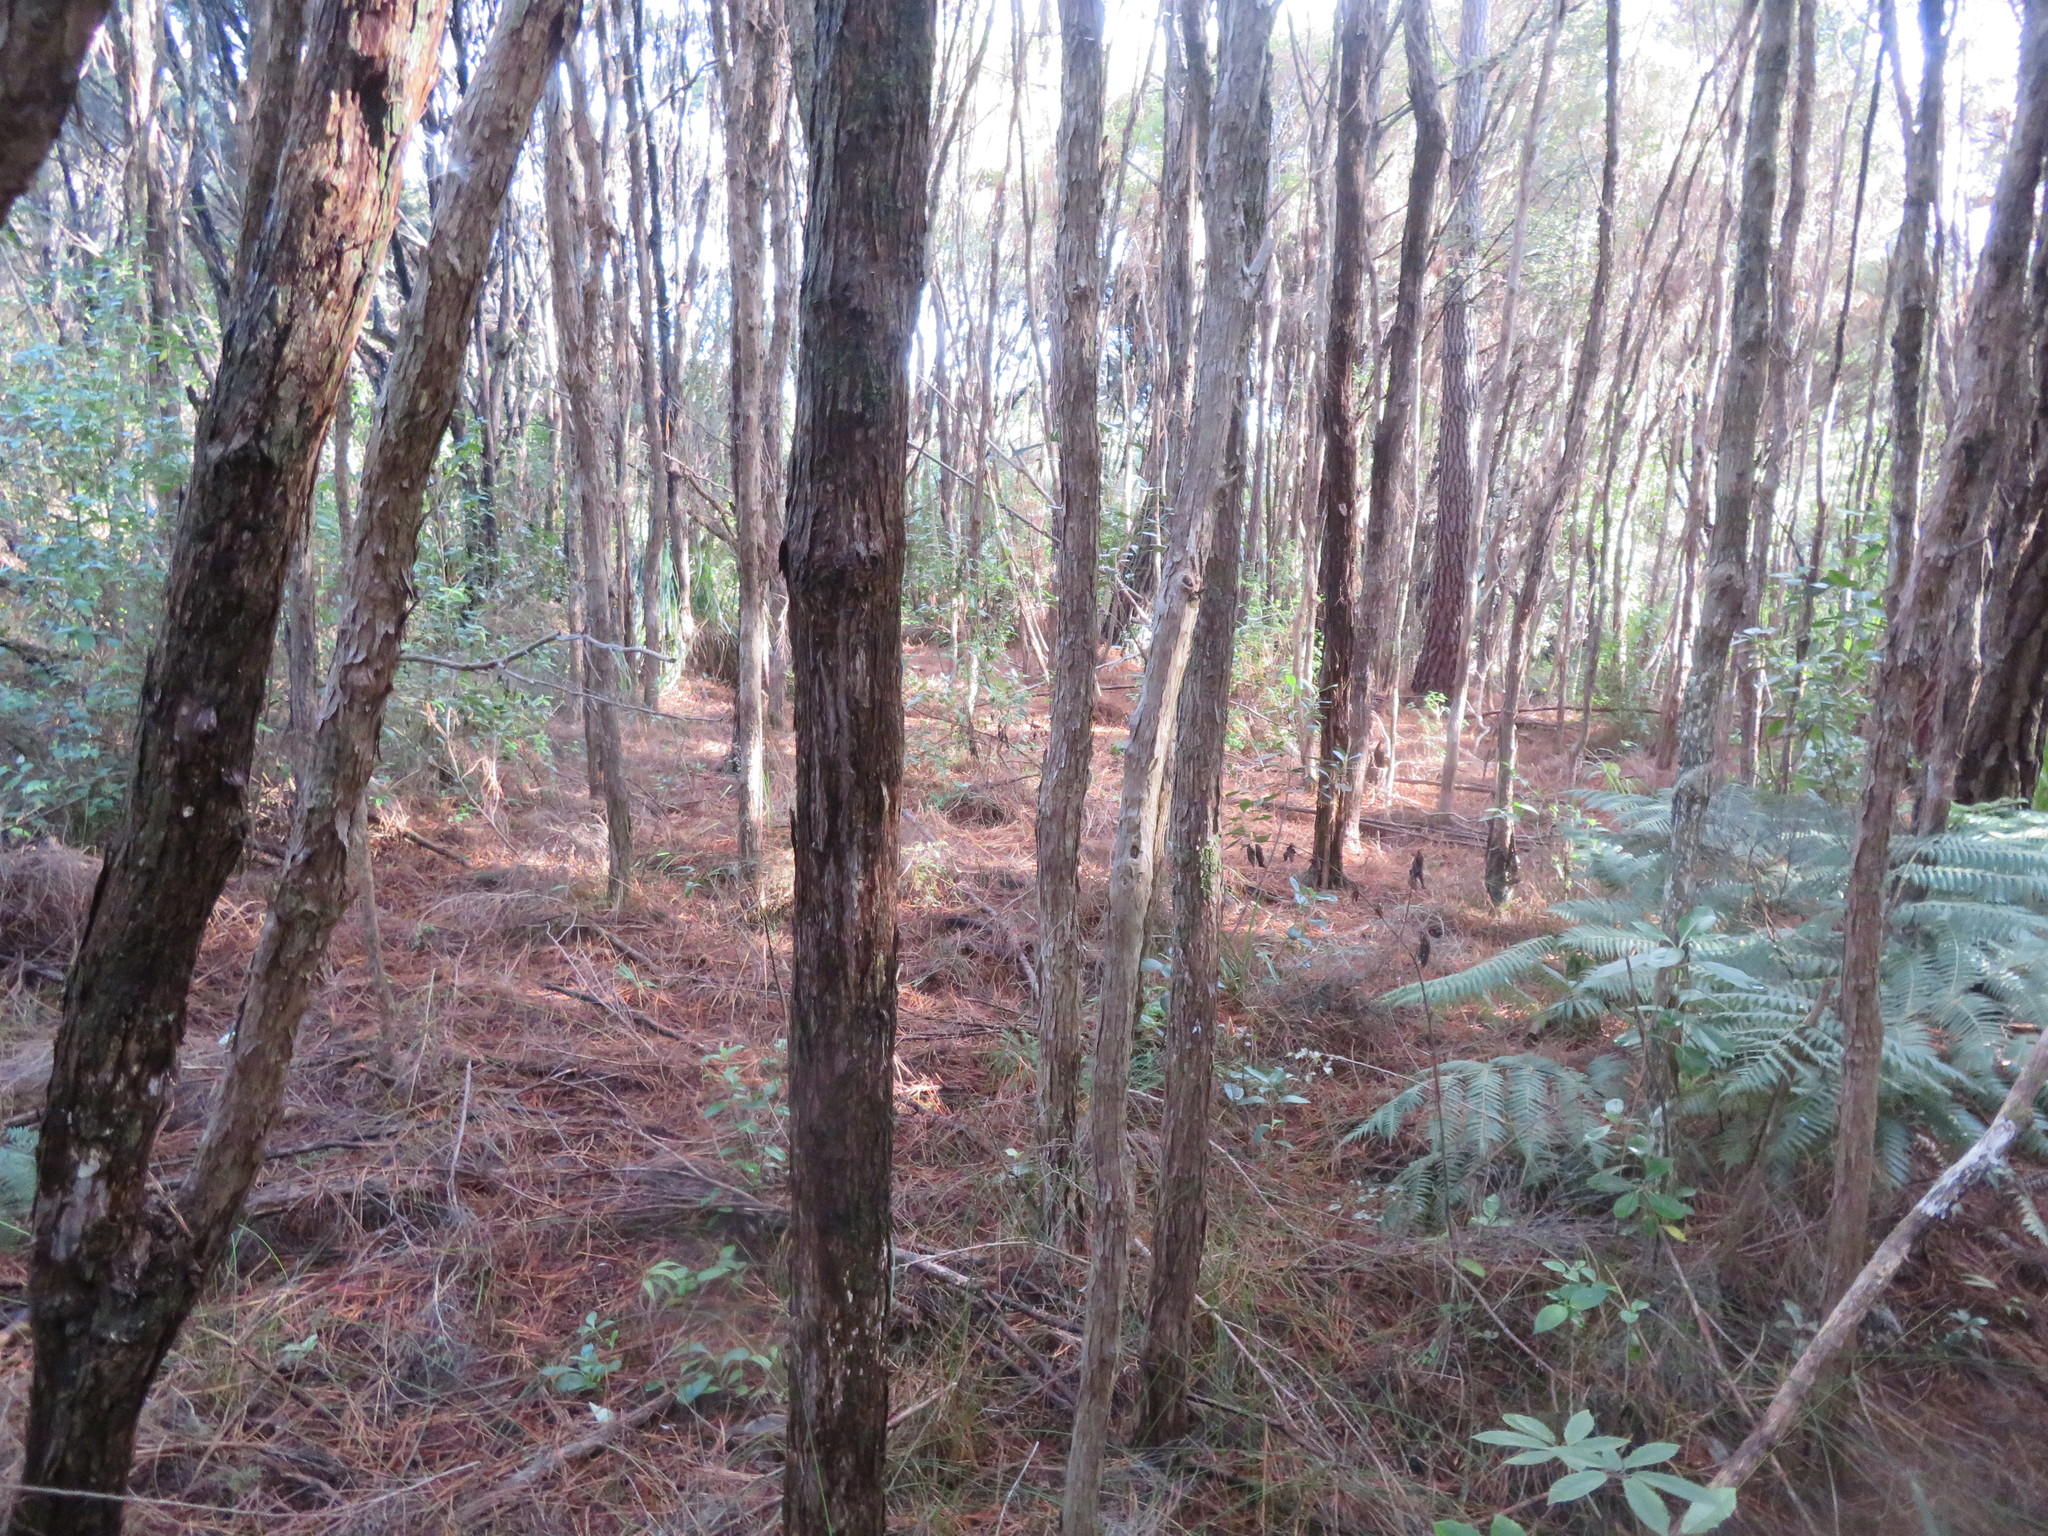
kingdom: Plantae
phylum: Tracheophyta
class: Pinopsida
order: Pinales
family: Pinaceae
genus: Pinus
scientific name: Pinus radiata
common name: Monterey pine
